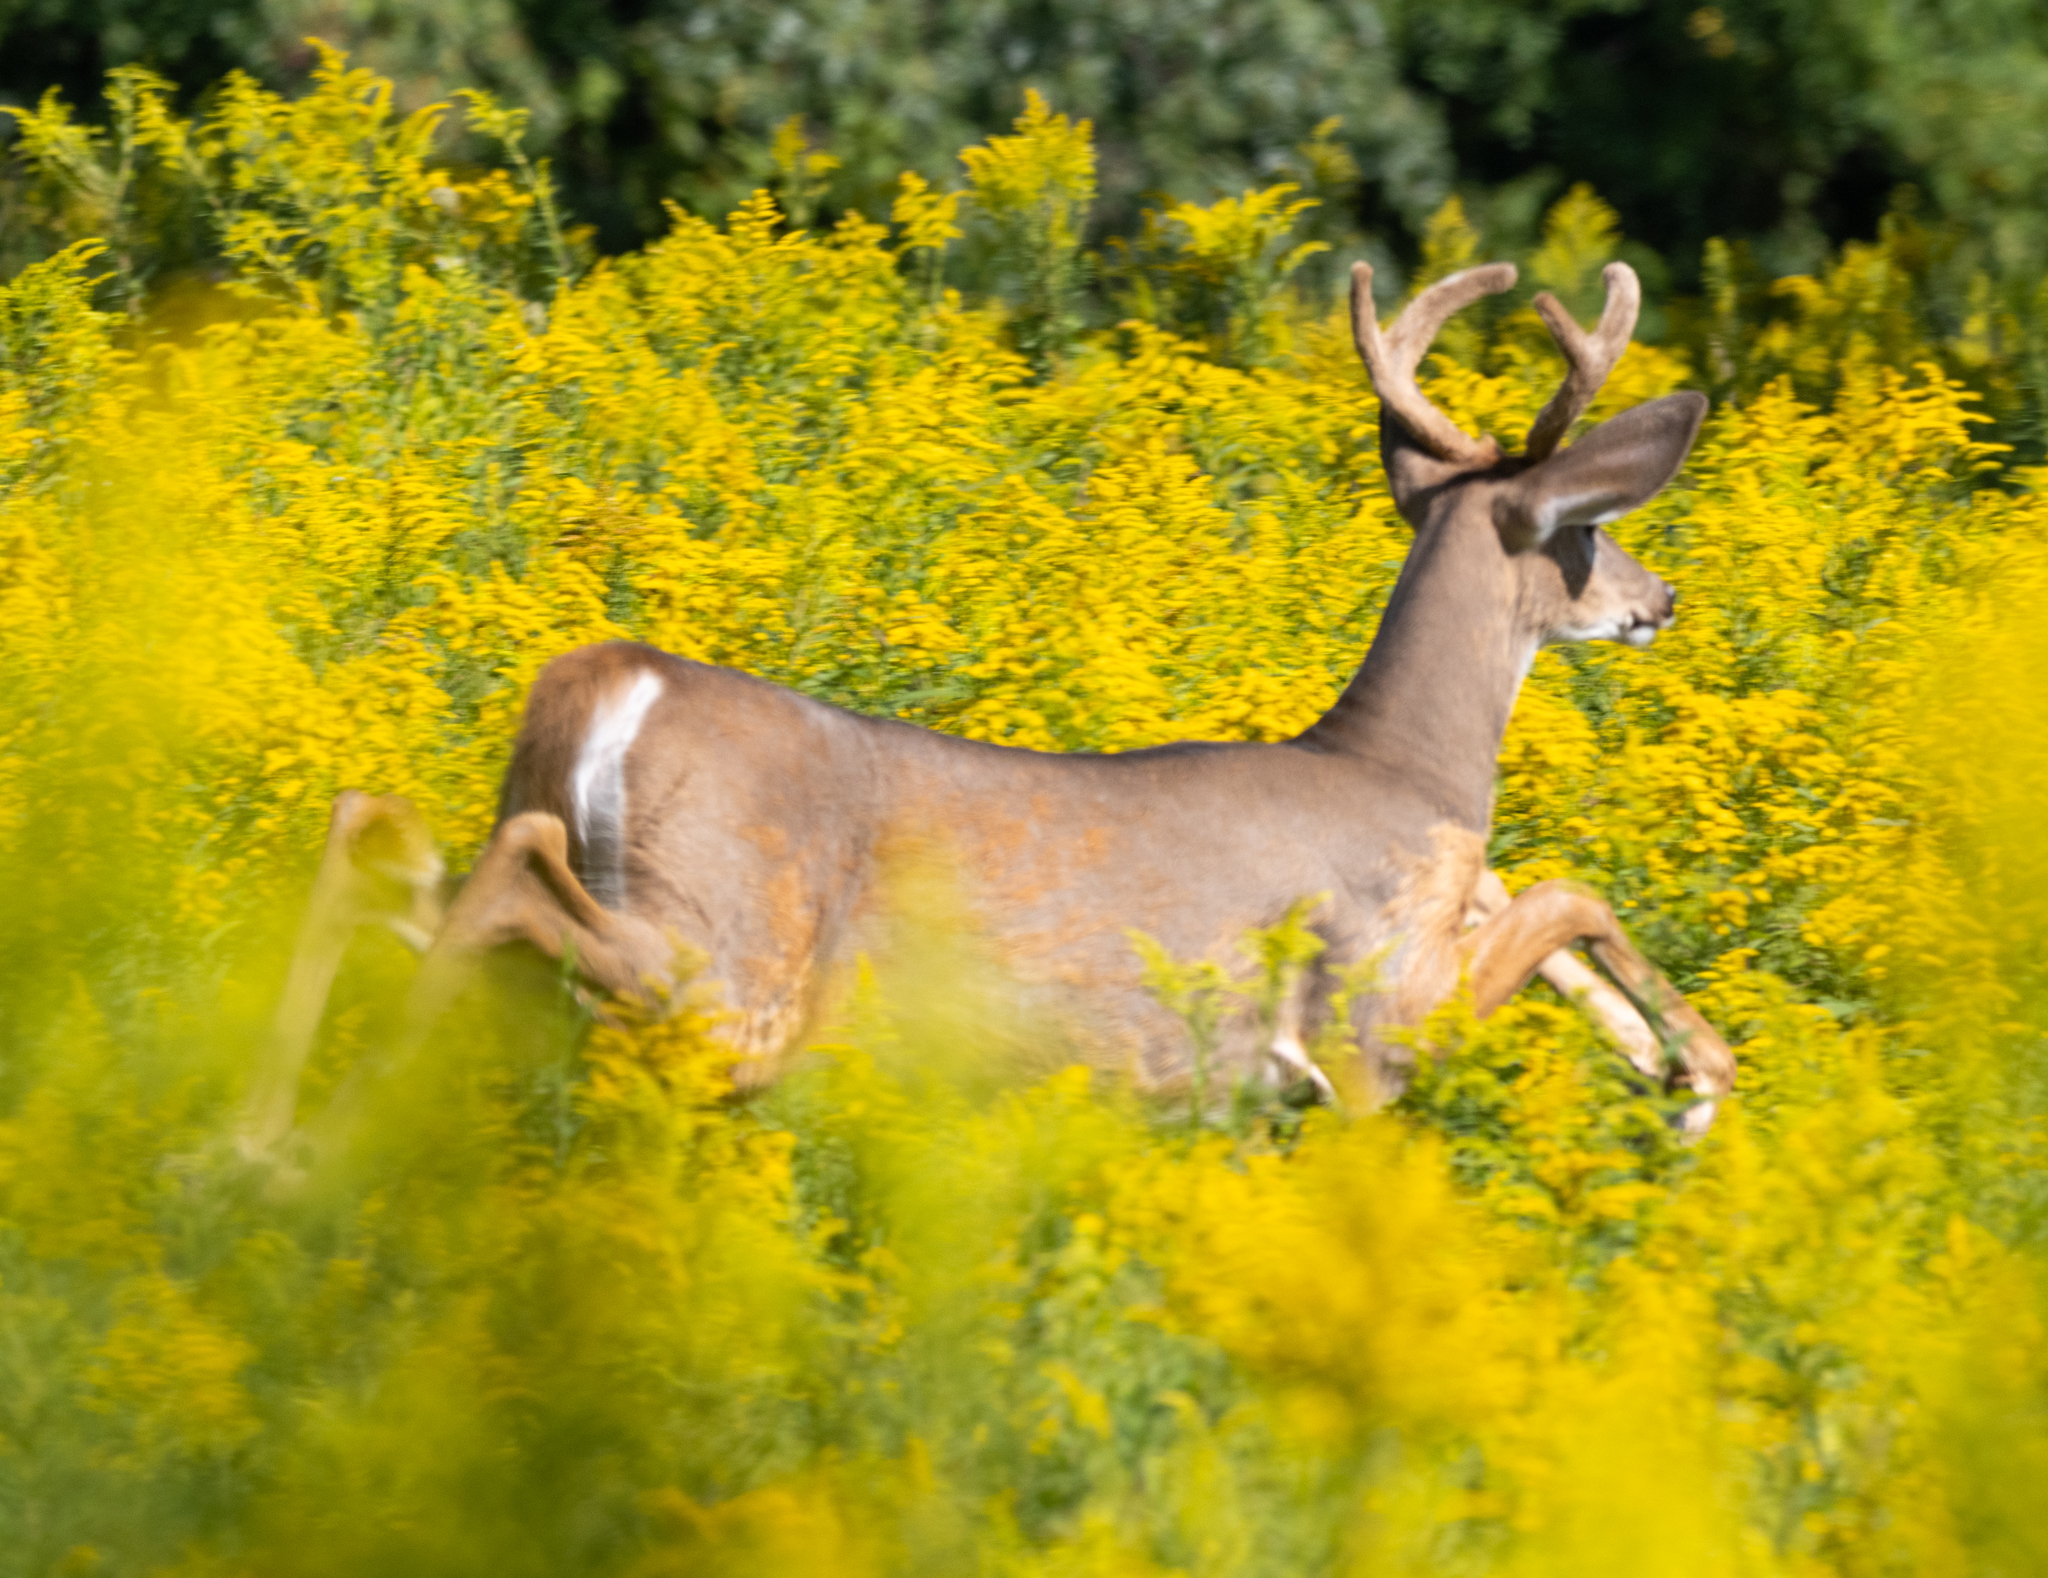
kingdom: Animalia
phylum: Chordata
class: Mammalia
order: Artiodactyla
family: Cervidae
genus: Odocoileus
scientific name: Odocoileus virginianus
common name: White-tailed deer
